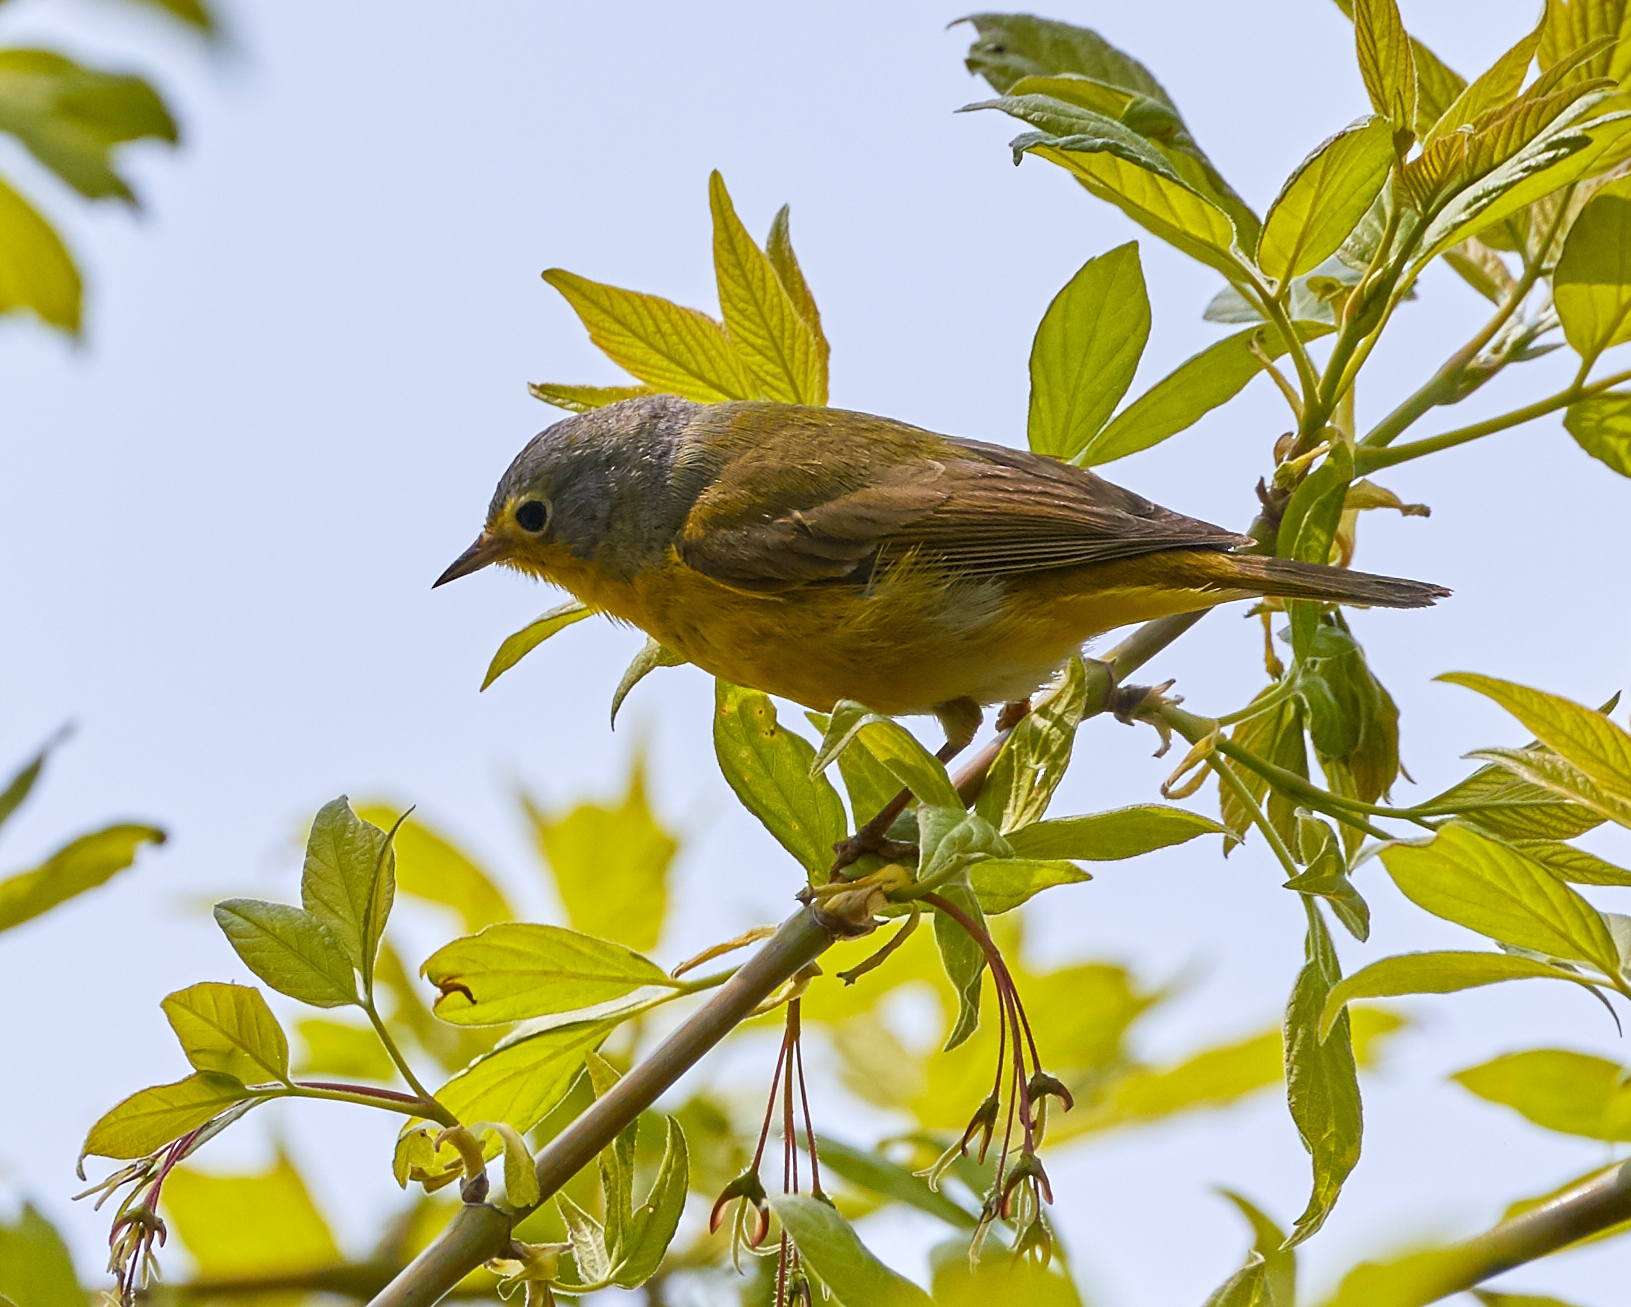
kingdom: Animalia
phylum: Chordata
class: Aves
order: Passeriformes
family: Parulidae
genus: Leiothlypis
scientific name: Leiothlypis ruficapilla
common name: Nashville warbler
